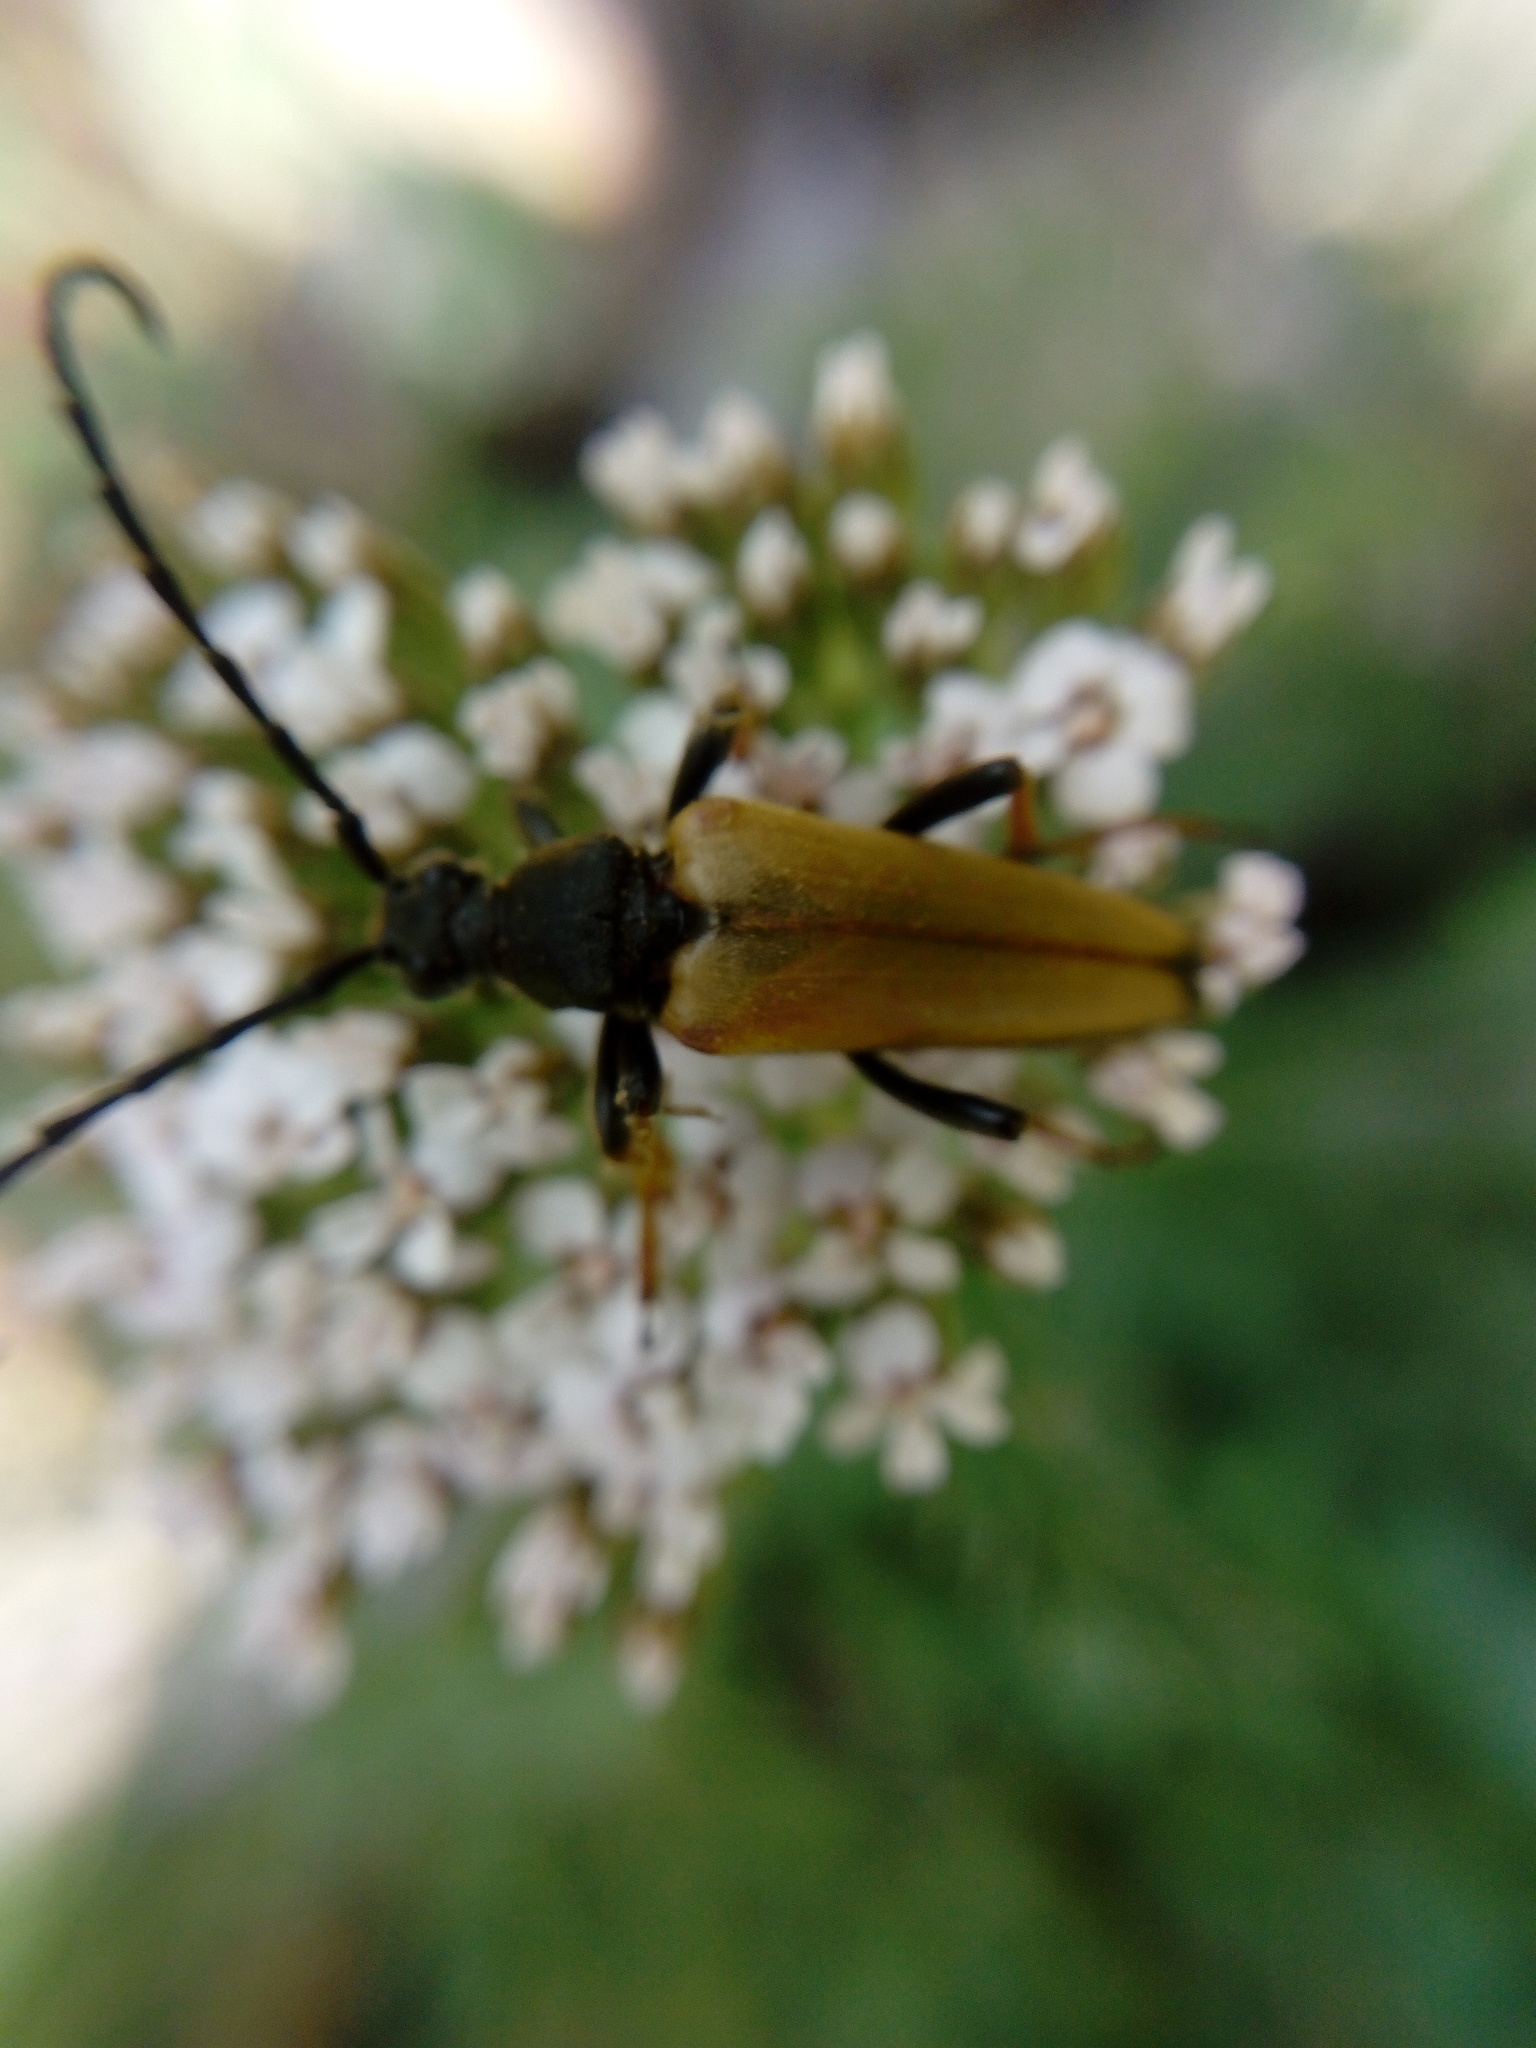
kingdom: Animalia
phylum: Arthropoda
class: Insecta
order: Coleoptera
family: Cerambycidae
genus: Stictoleptura
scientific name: Stictoleptura rubra
